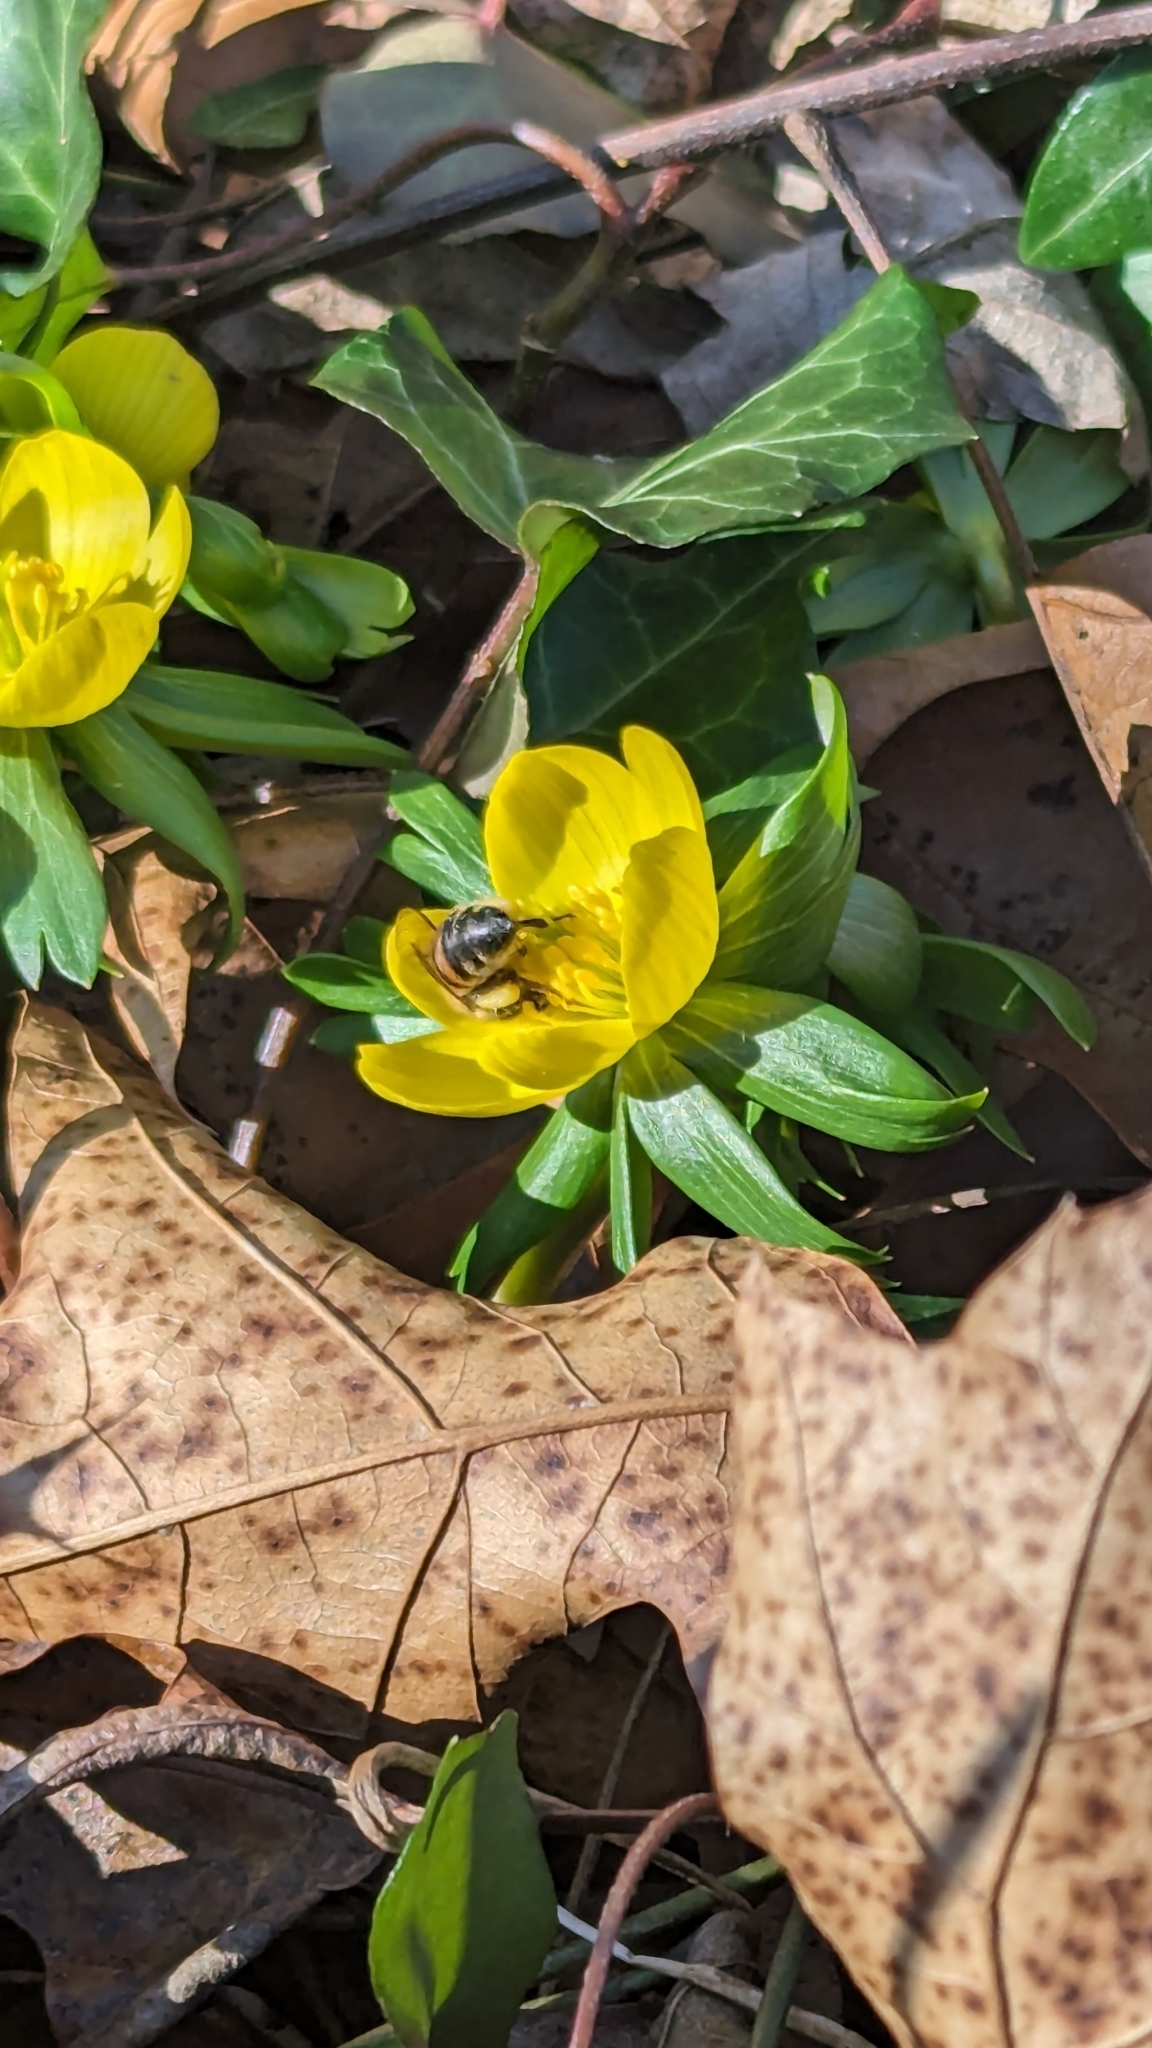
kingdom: Animalia
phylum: Arthropoda
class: Insecta
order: Hymenoptera
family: Apidae
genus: Apis
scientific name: Apis mellifera
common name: Honey bee
